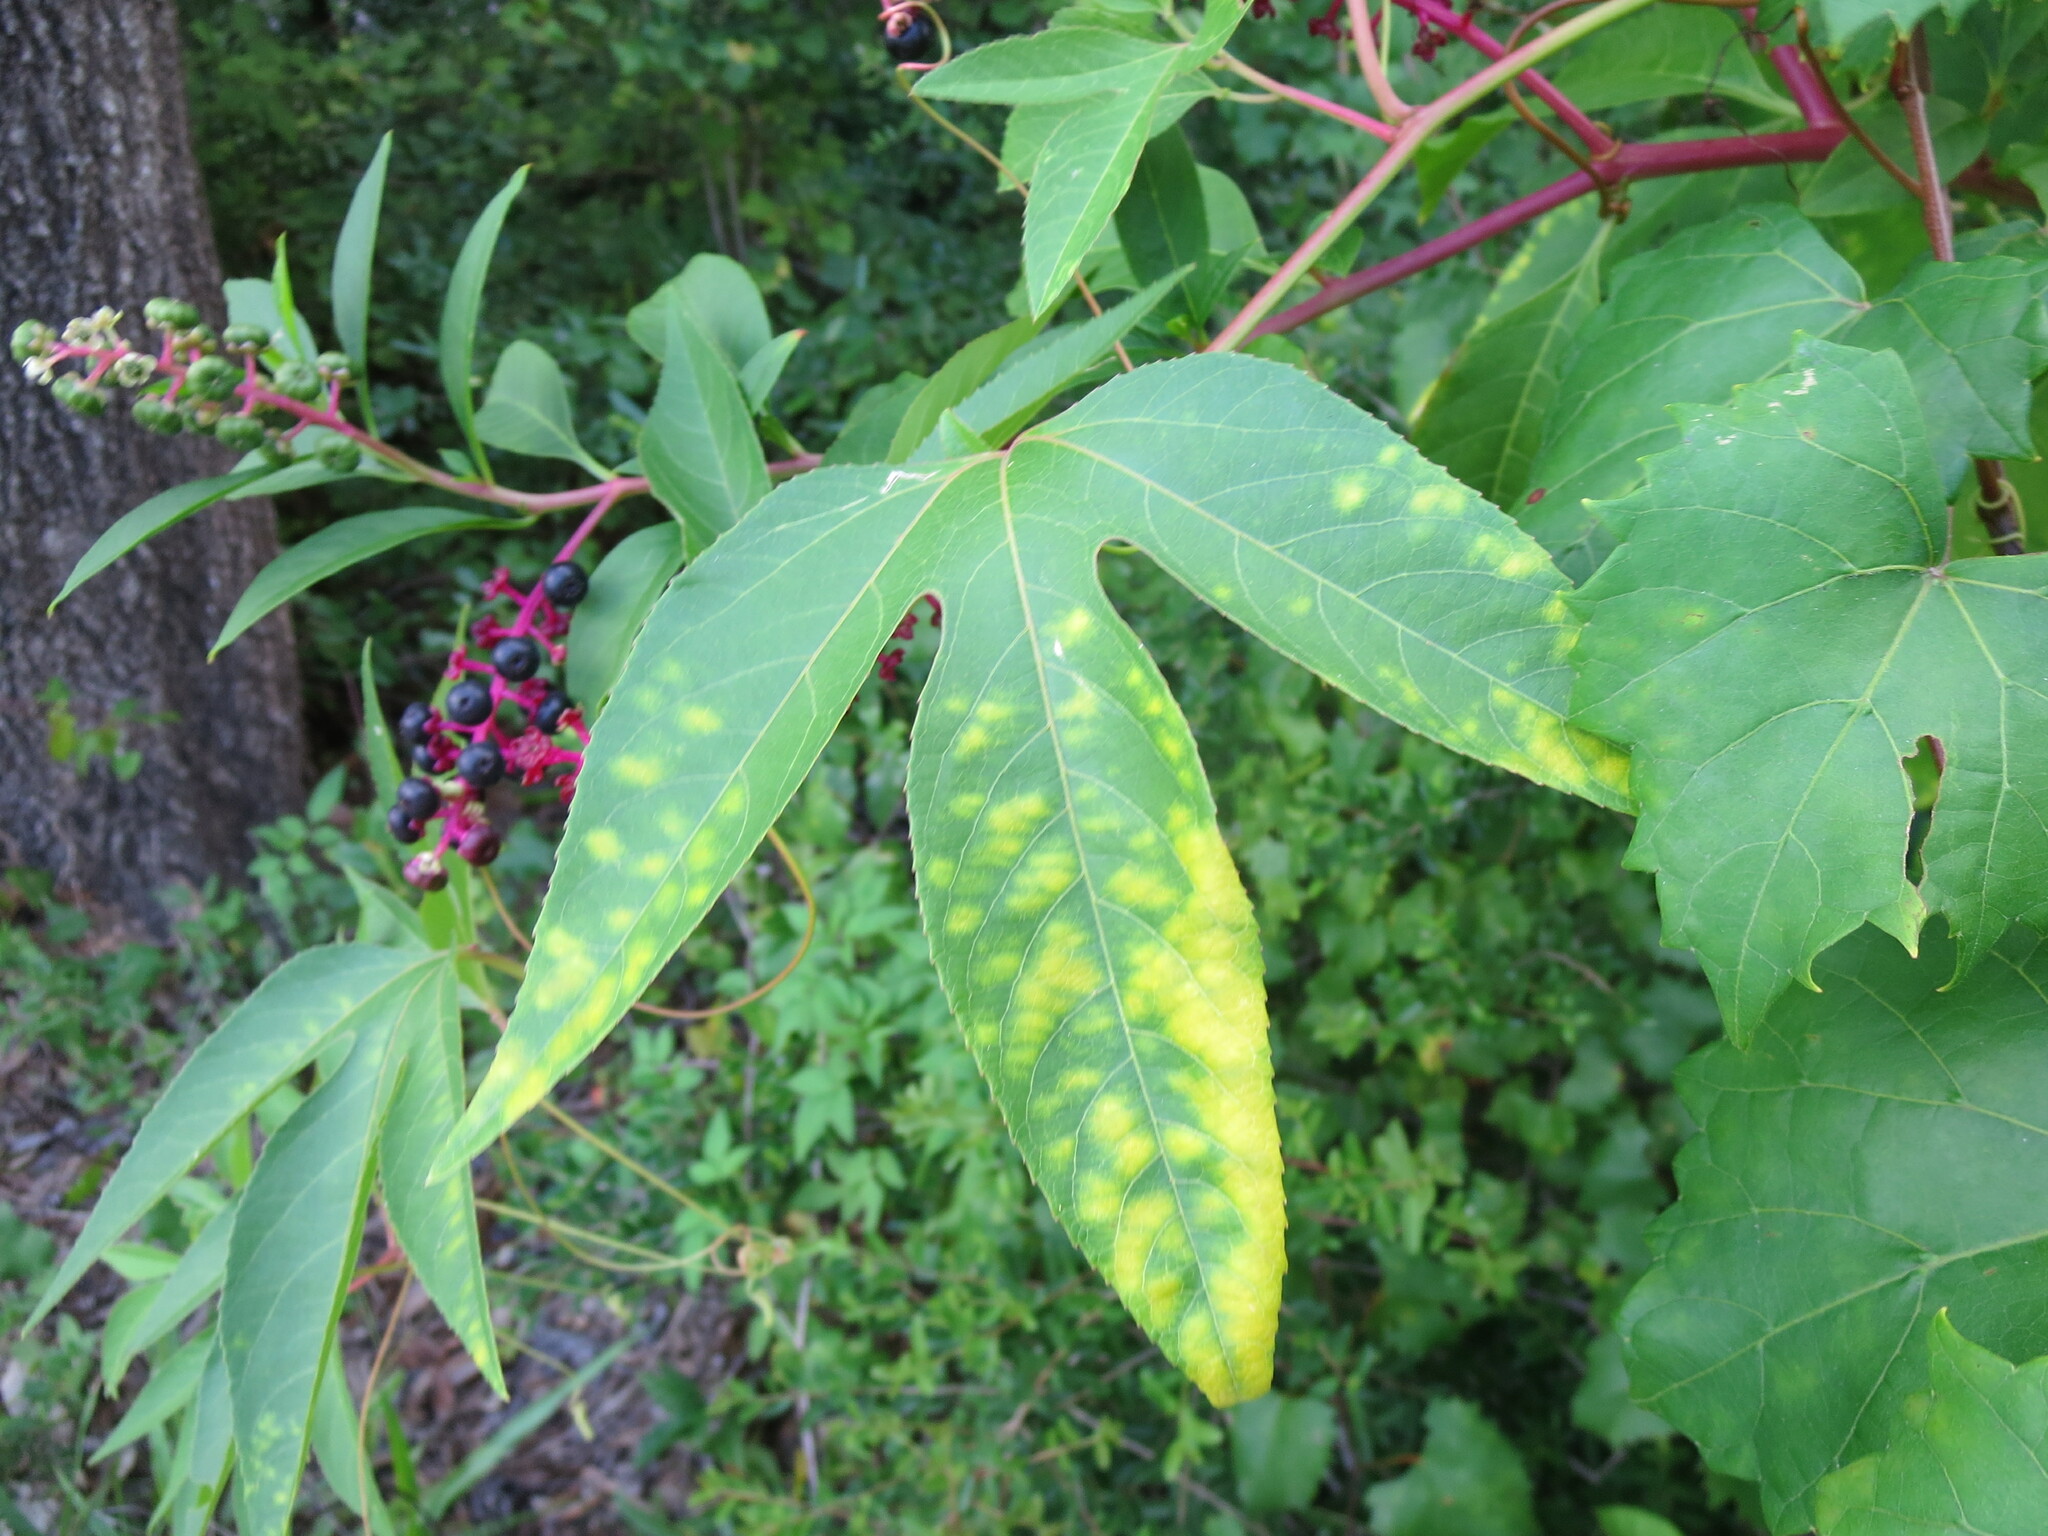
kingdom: Plantae
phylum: Tracheophyta
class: Magnoliopsida
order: Malpighiales
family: Passifloraceae
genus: Passiflora
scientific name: Passiflora incarnata
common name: Apricot-vine
